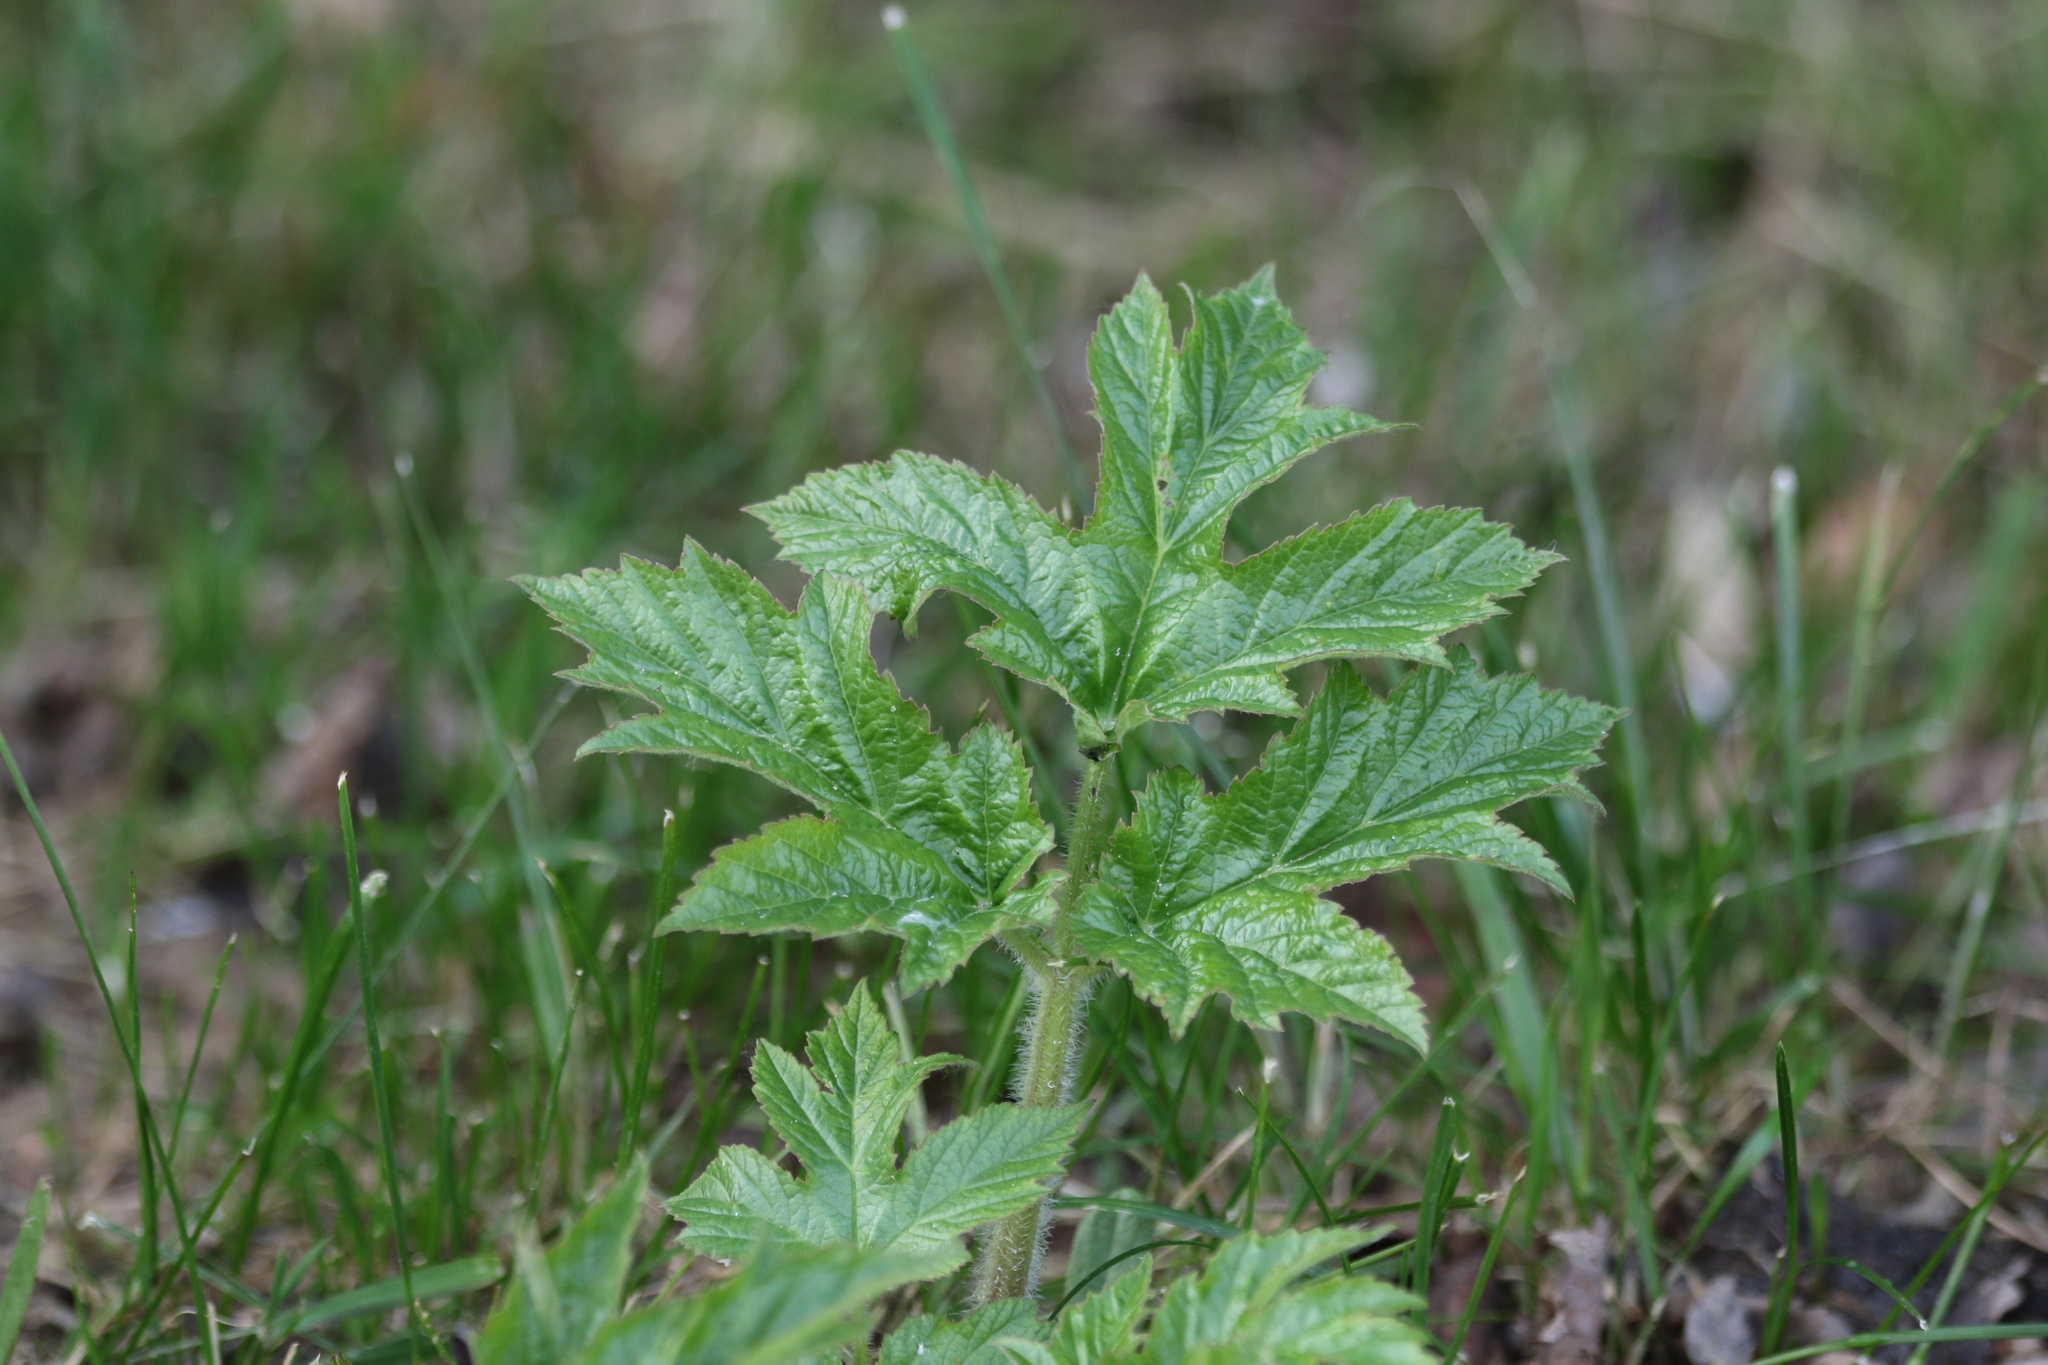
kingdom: Plantae
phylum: Tracheophyta
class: Magnoliopsida
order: Apiales
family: Apiaceae
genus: Heracleum
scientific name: Heracleum dissectum
